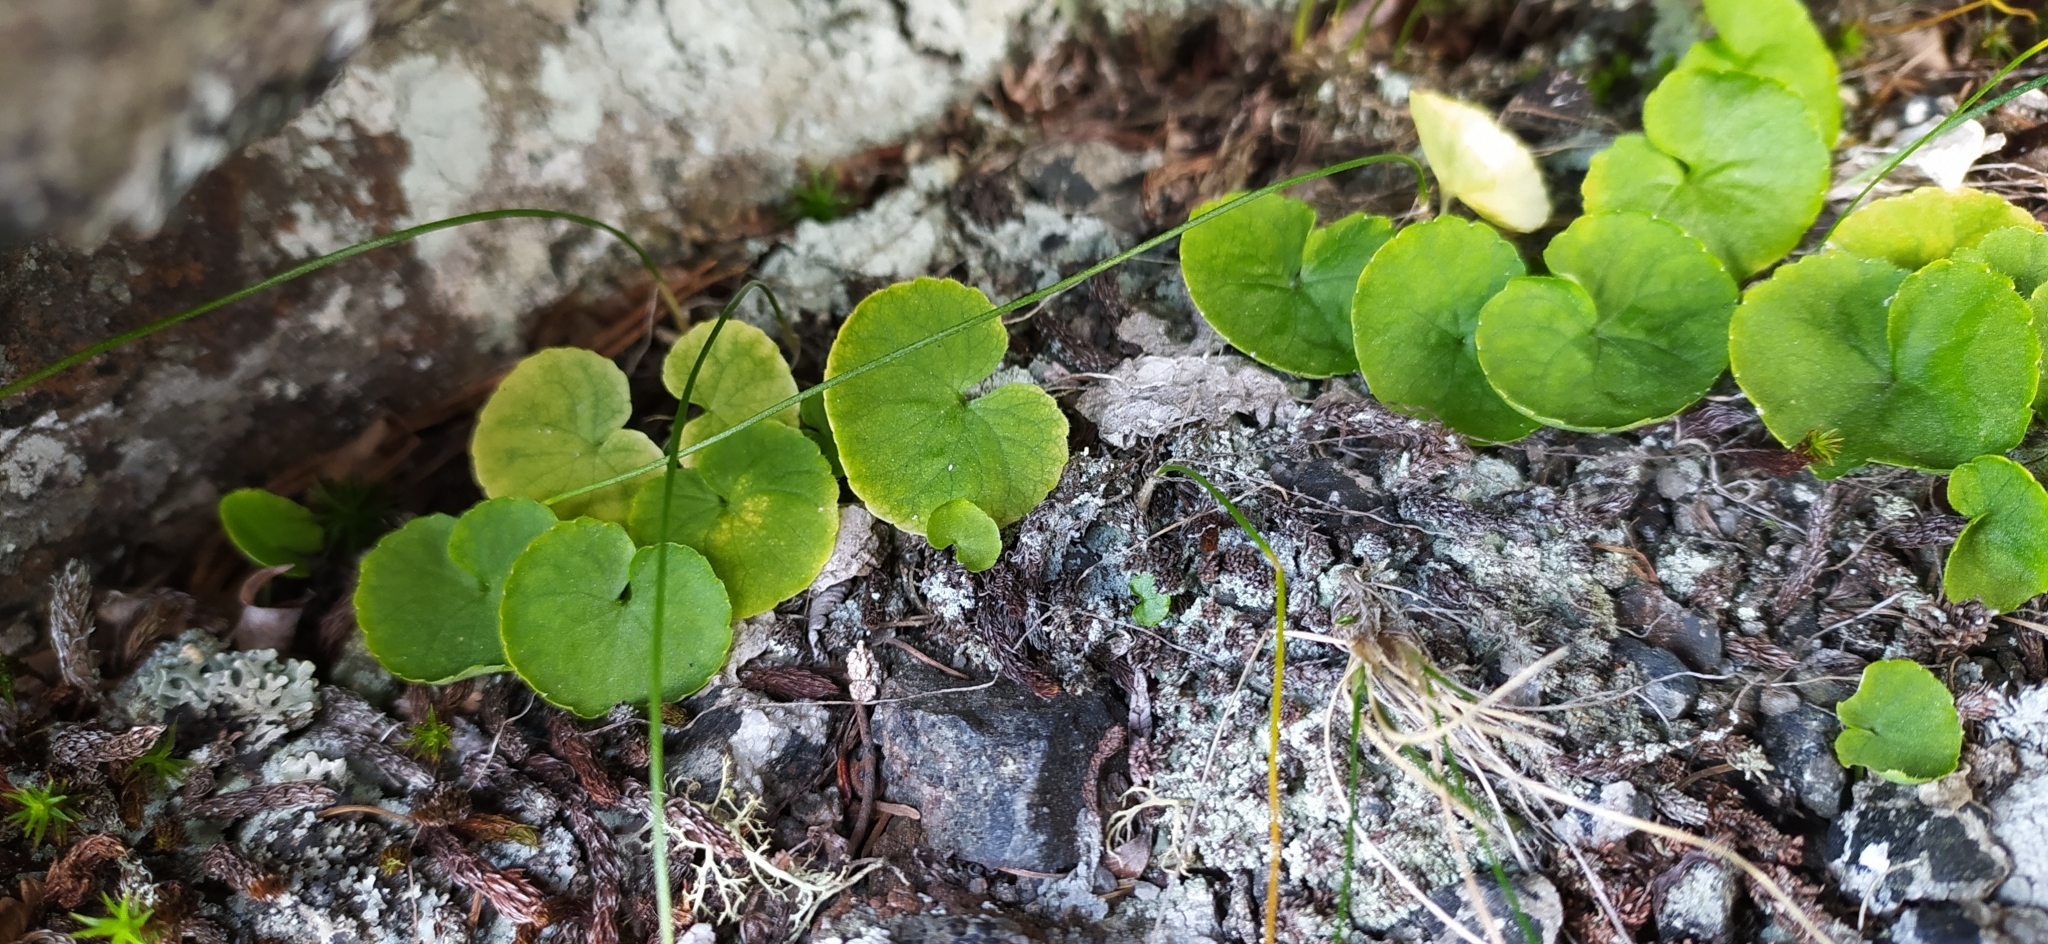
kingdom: Plantae
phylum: Tracheophyta
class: Magnoliopsida
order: Malpighiales
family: Violaceae
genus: Viola
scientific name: Viola biflora
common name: Alpine yellow violet
